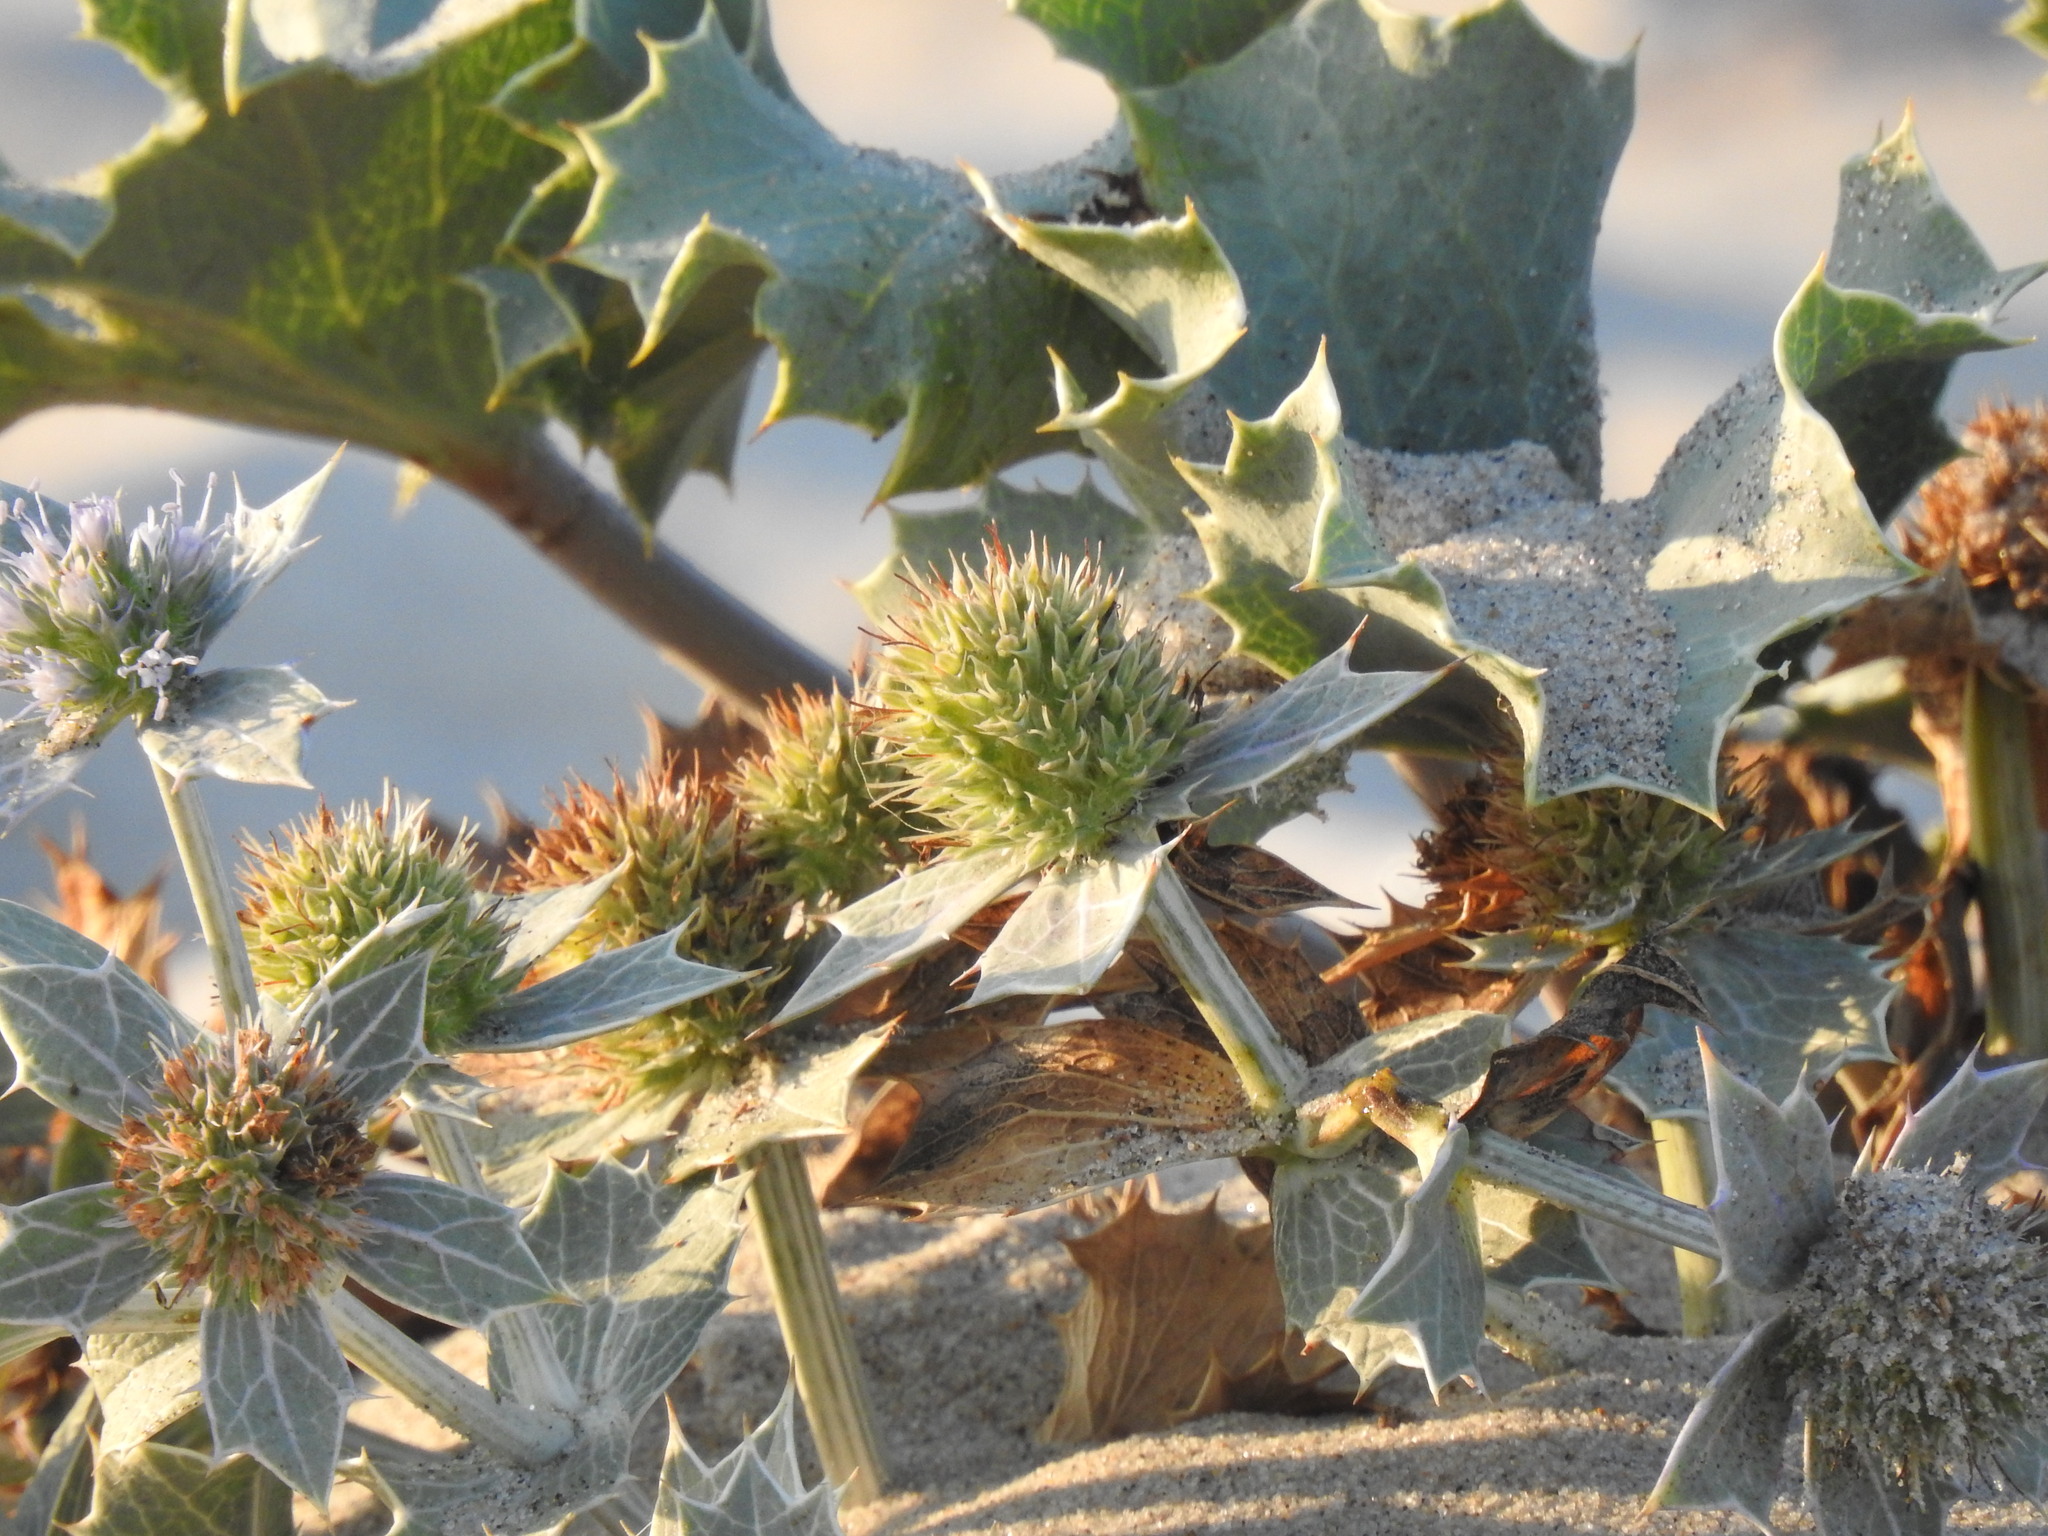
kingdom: Plantae
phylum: Tracheophyta
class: Magnoliopsida
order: Apiales
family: Apiaceae
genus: Eryngium
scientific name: Eryngium maritimum
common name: Sea-holly
